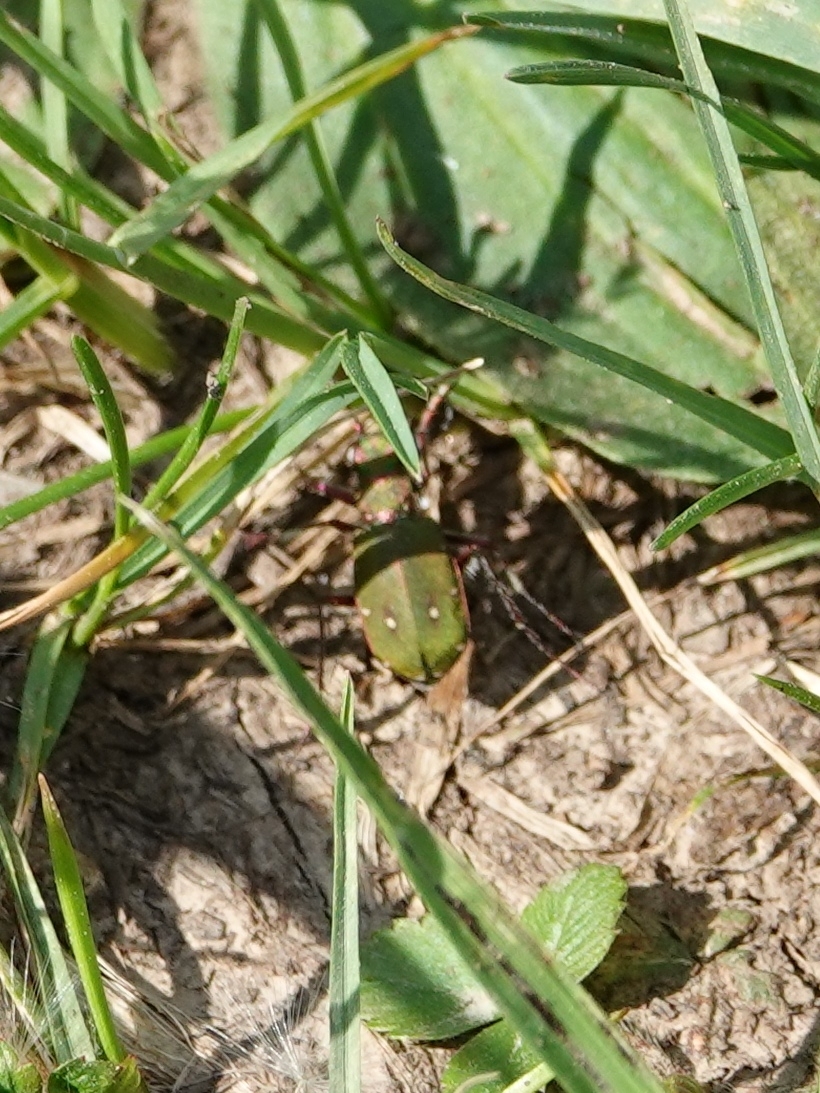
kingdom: Animalia
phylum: Arthropoda
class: Insecta
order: Coleoptera
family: Carabidae
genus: Cicindela
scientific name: Cicindela campestris
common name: Common tiger beetle
